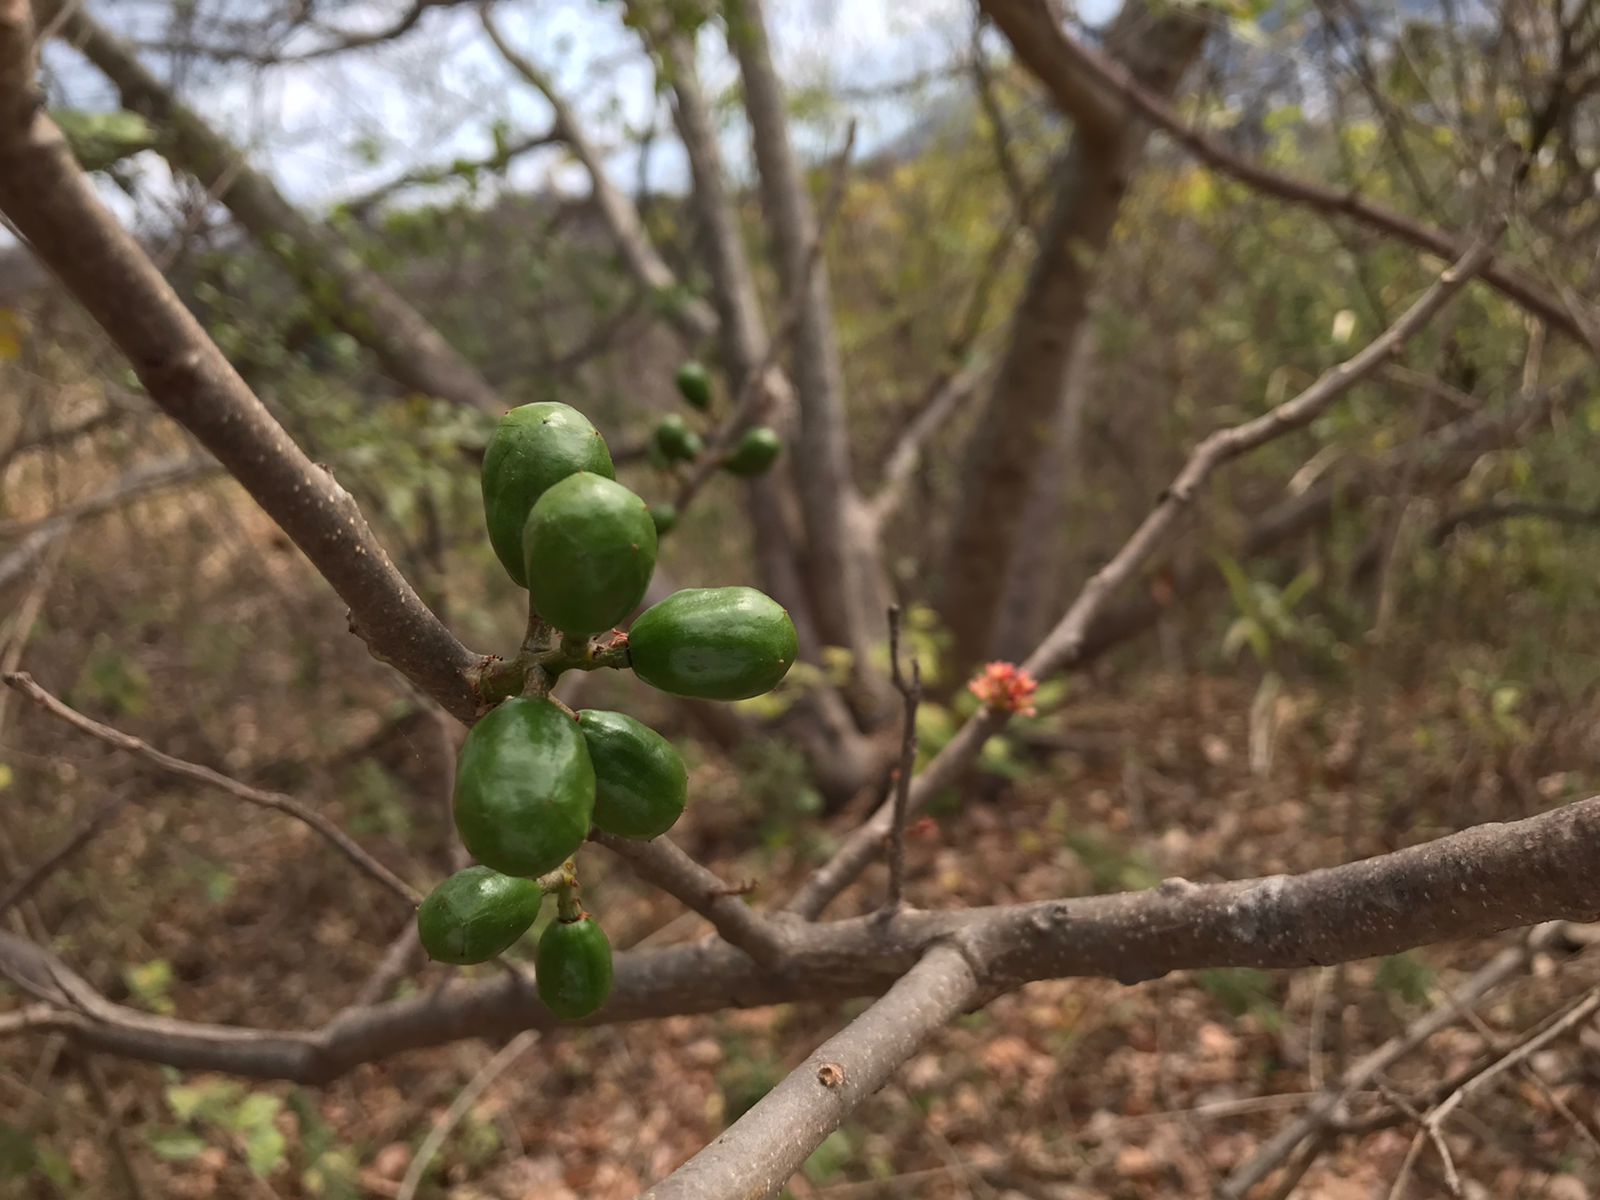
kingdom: Plantae
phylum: Tracheophyta
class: Magnoliopsida
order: Sapindales
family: Anacardiaceae
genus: Spondias
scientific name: Spondias purpurea
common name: Purple mombin
